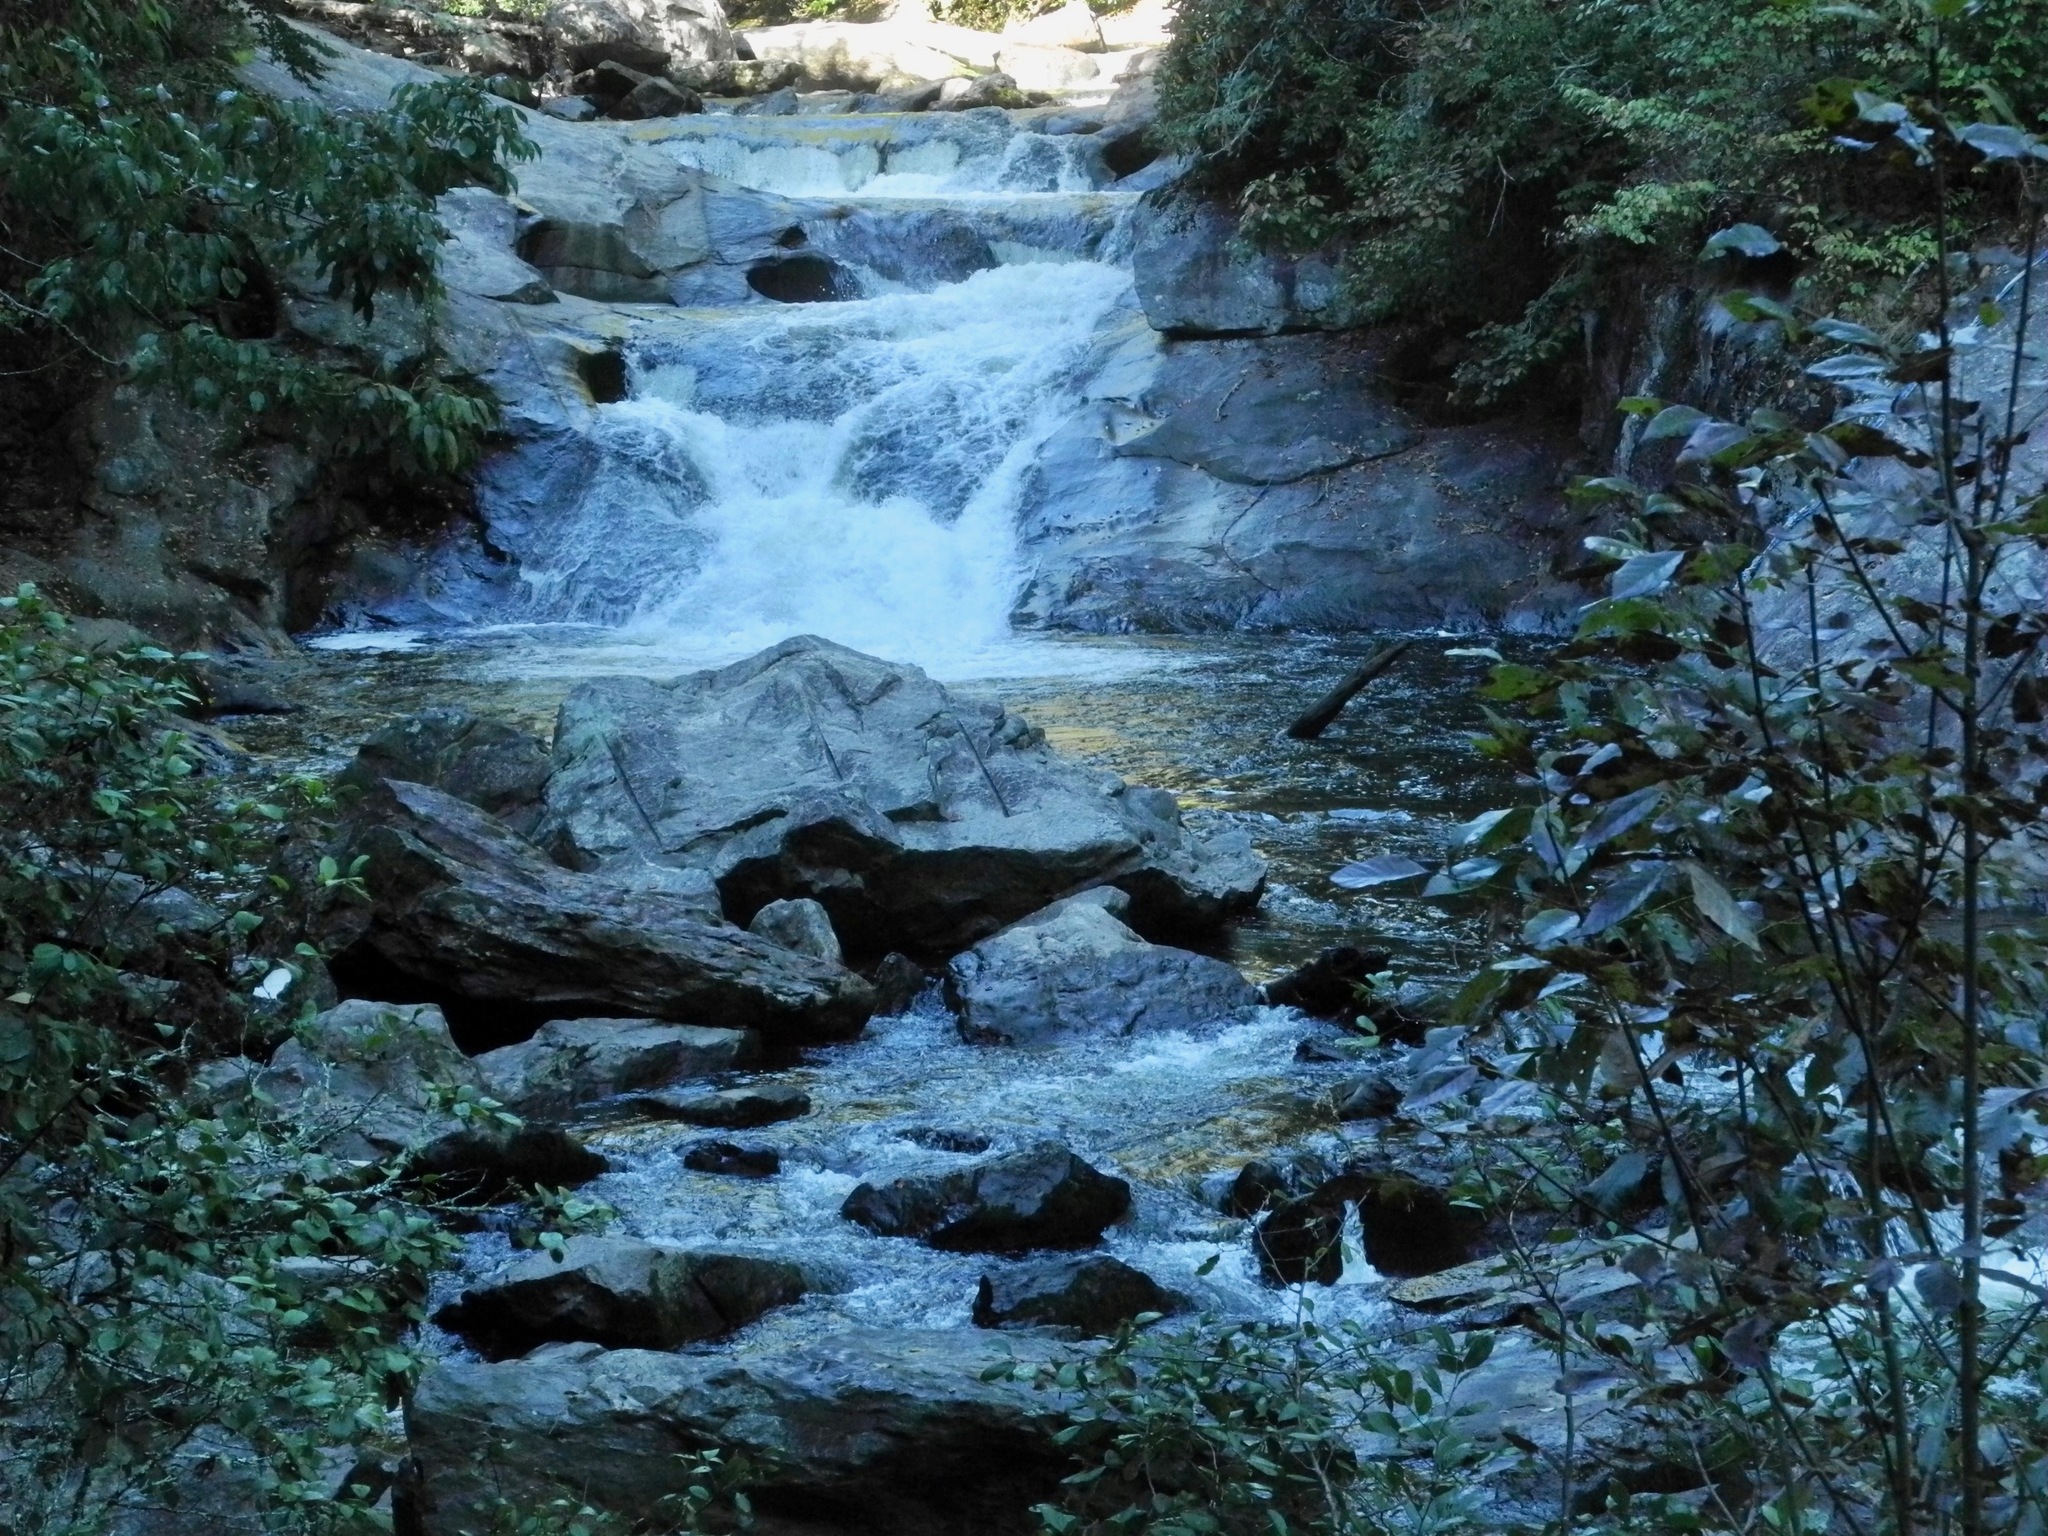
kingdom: Fungi
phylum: Ascomycota
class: Lecanoromycetes
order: Peltigerales
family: Peltigeraceae
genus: Peltigera
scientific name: Peltigera leucophlebia
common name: Ruffled freckle pelt lichen
